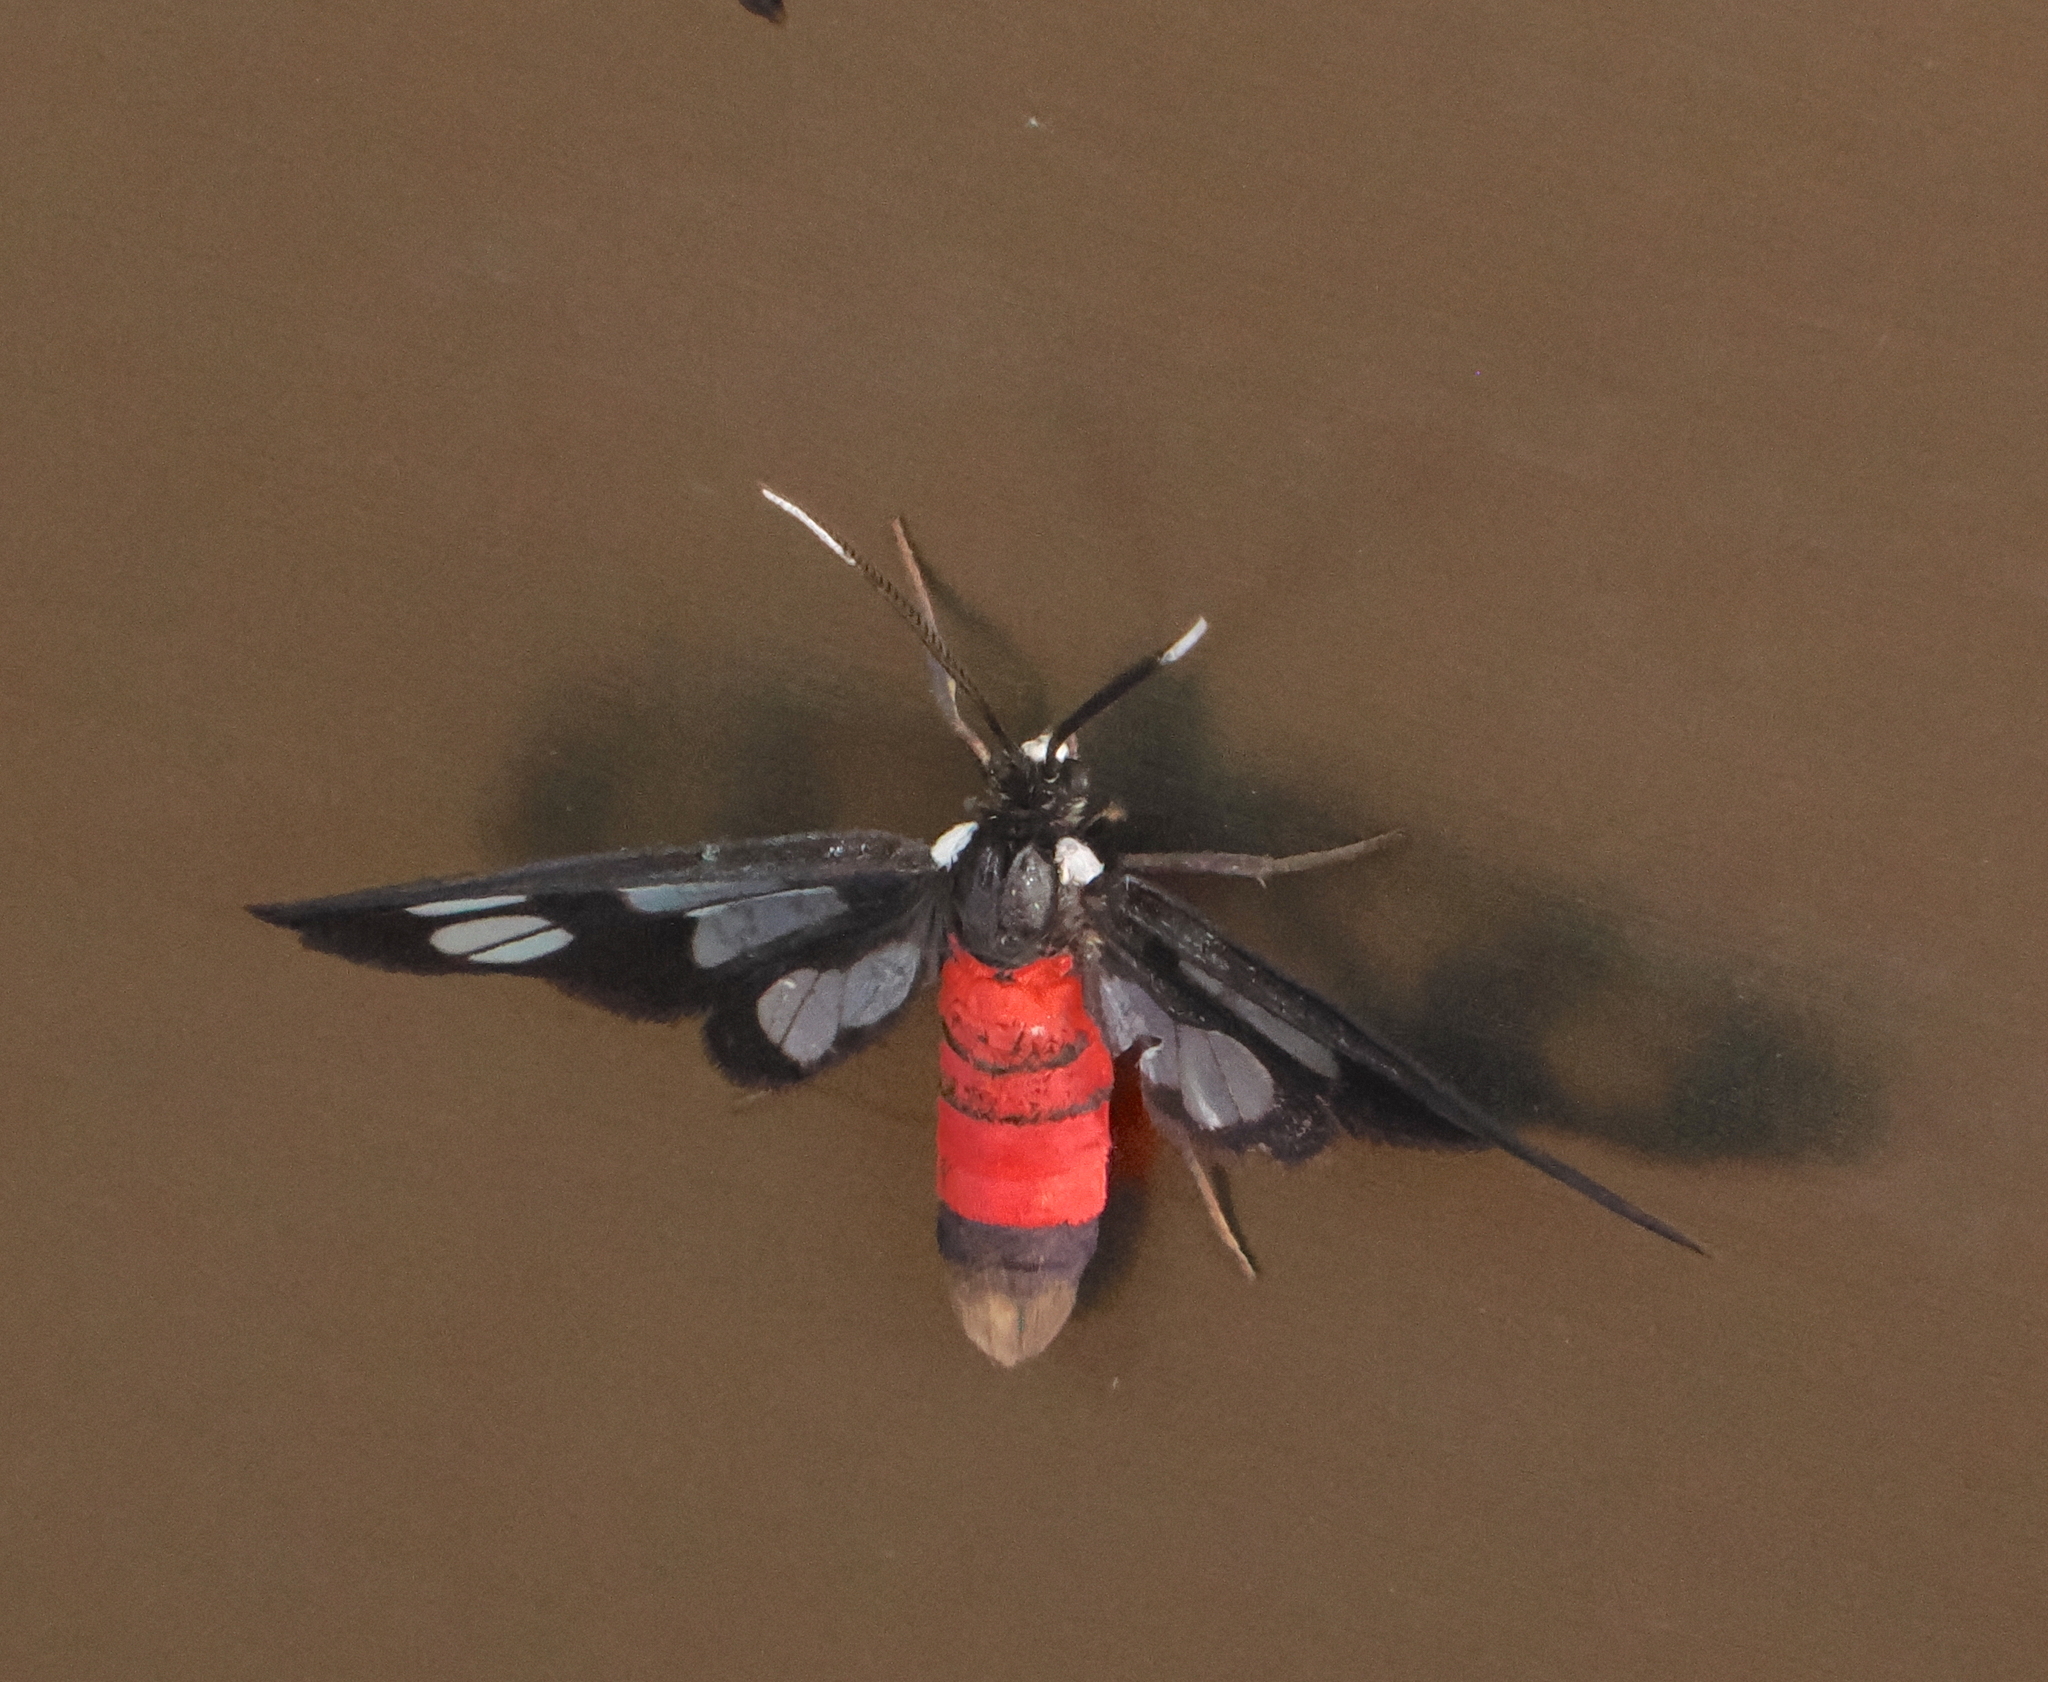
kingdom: Animalia
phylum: Arthropoda
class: Insecta
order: Lepidoptera
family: Erebidae
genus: Amata
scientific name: Amata fouqueti
